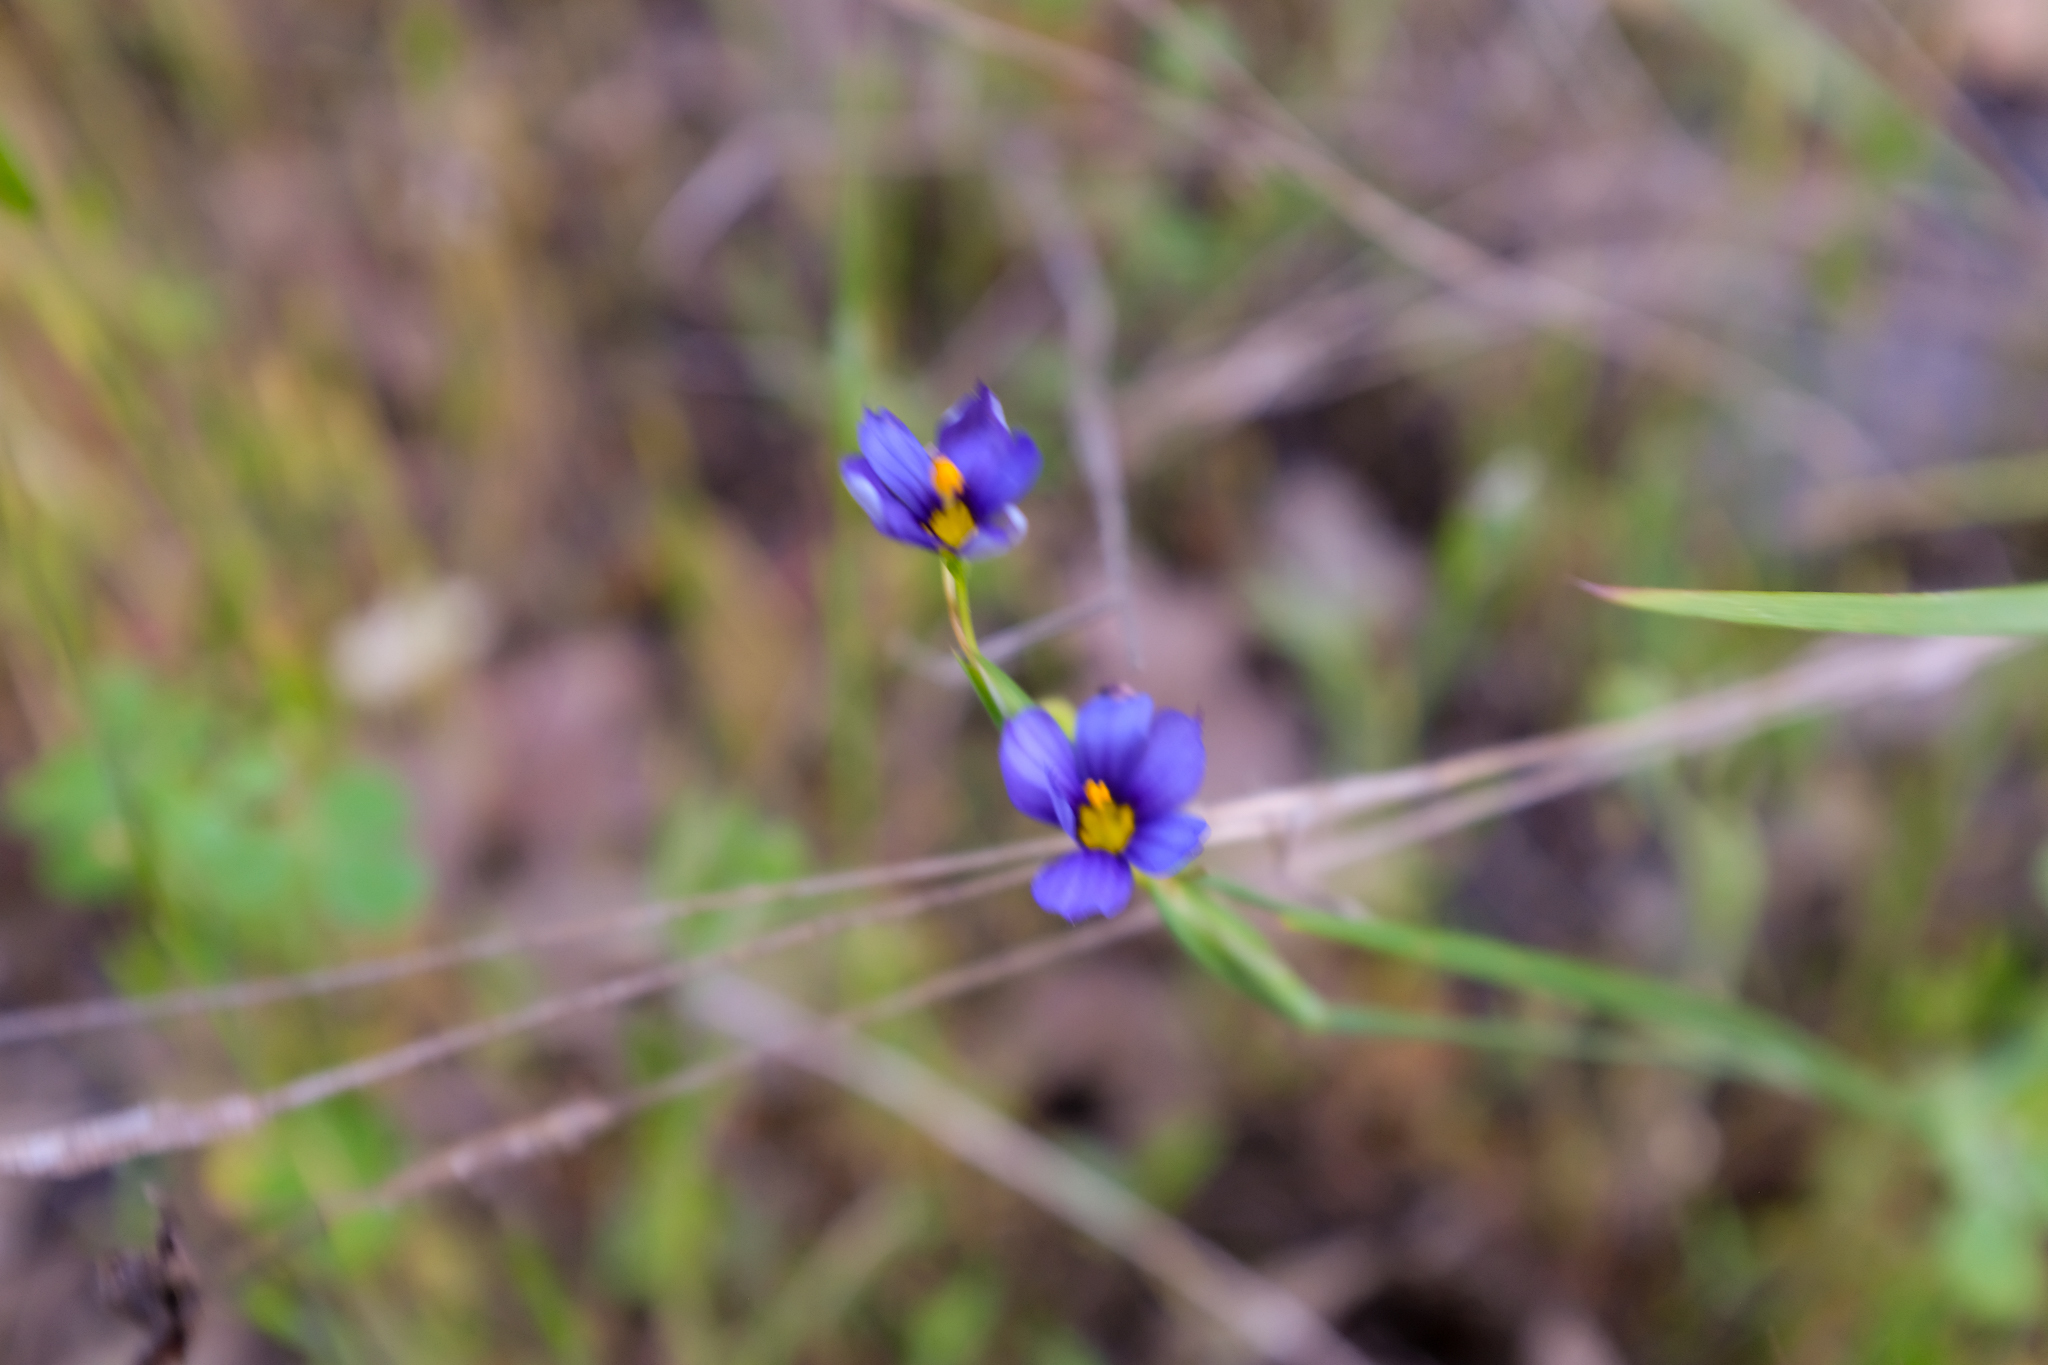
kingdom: Plantae
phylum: Tracheophyta
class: Liliopsida
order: Asparagales
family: Iridaceae
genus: Sisyrinchium
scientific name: Sisyrinchium bellum
